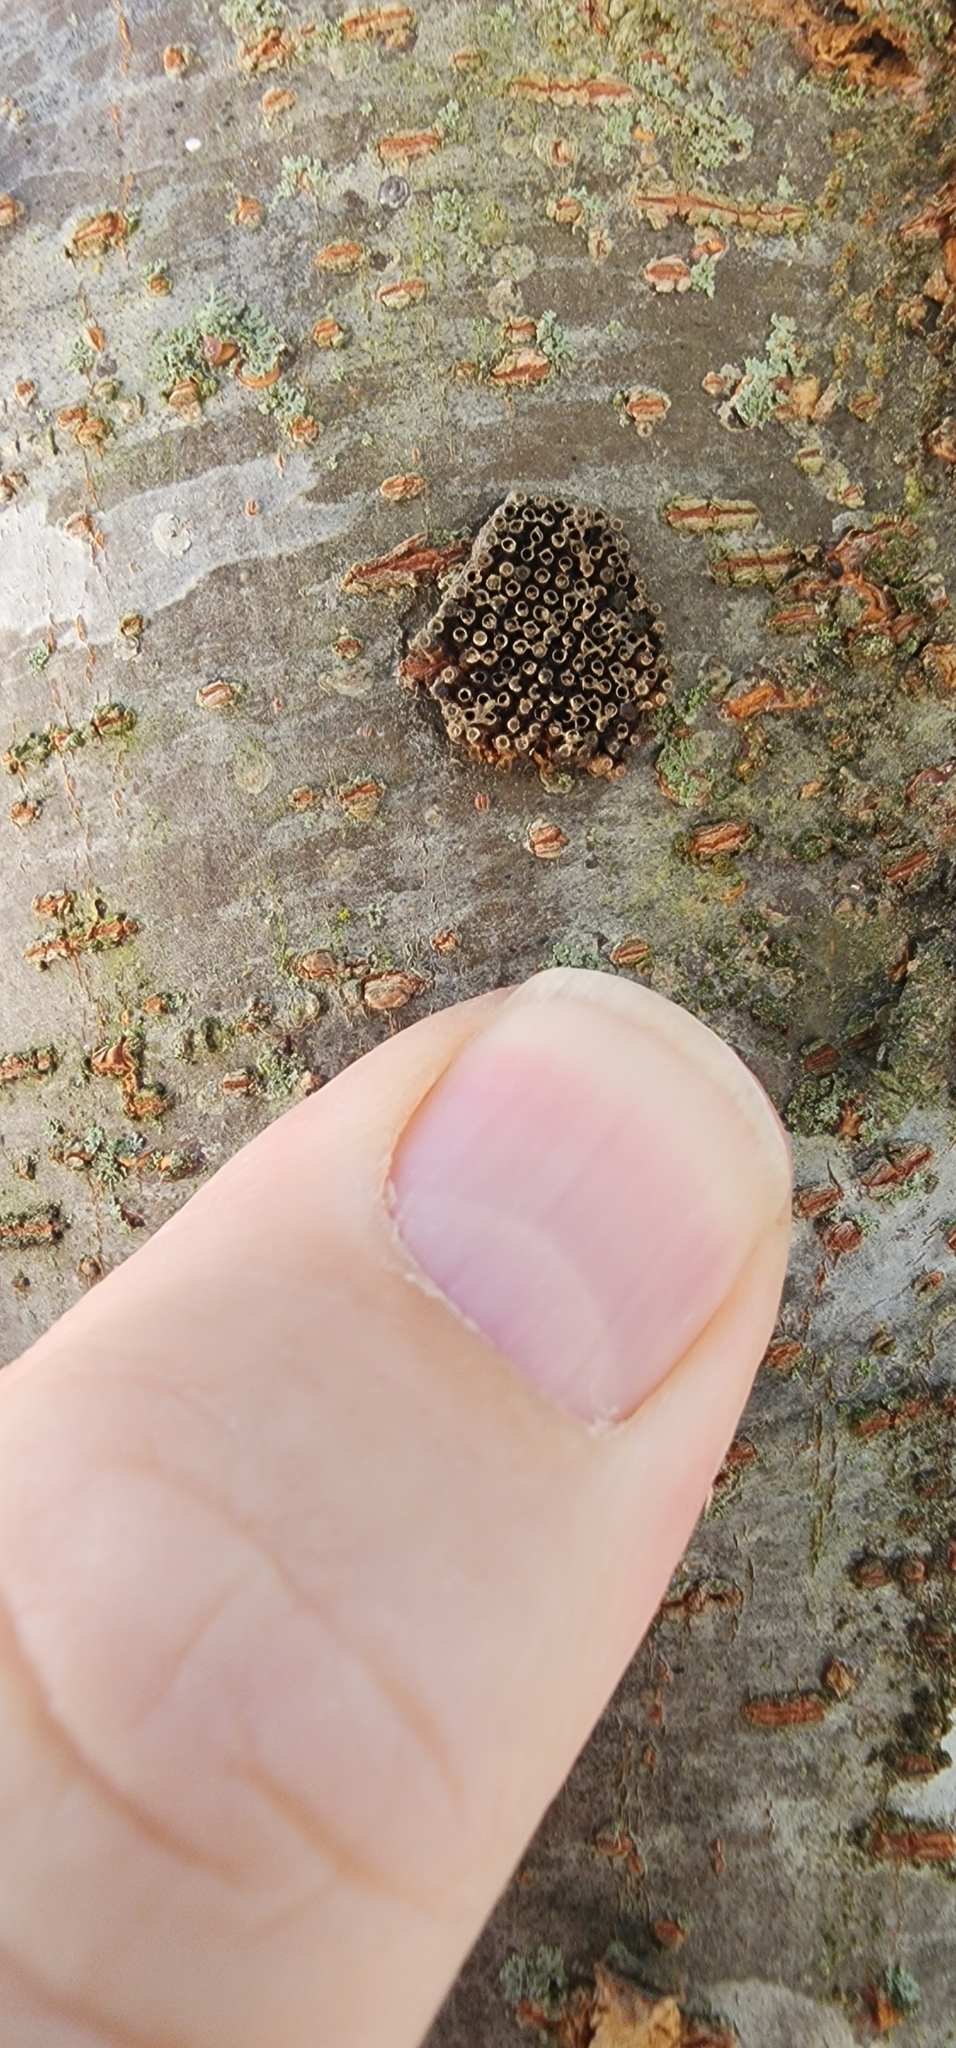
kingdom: Animalia
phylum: Arthropoda
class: Insecta
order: Hemiptera
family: Reduviidae
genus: Arilus
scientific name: Arilus cristatus
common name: North american wheel bug
